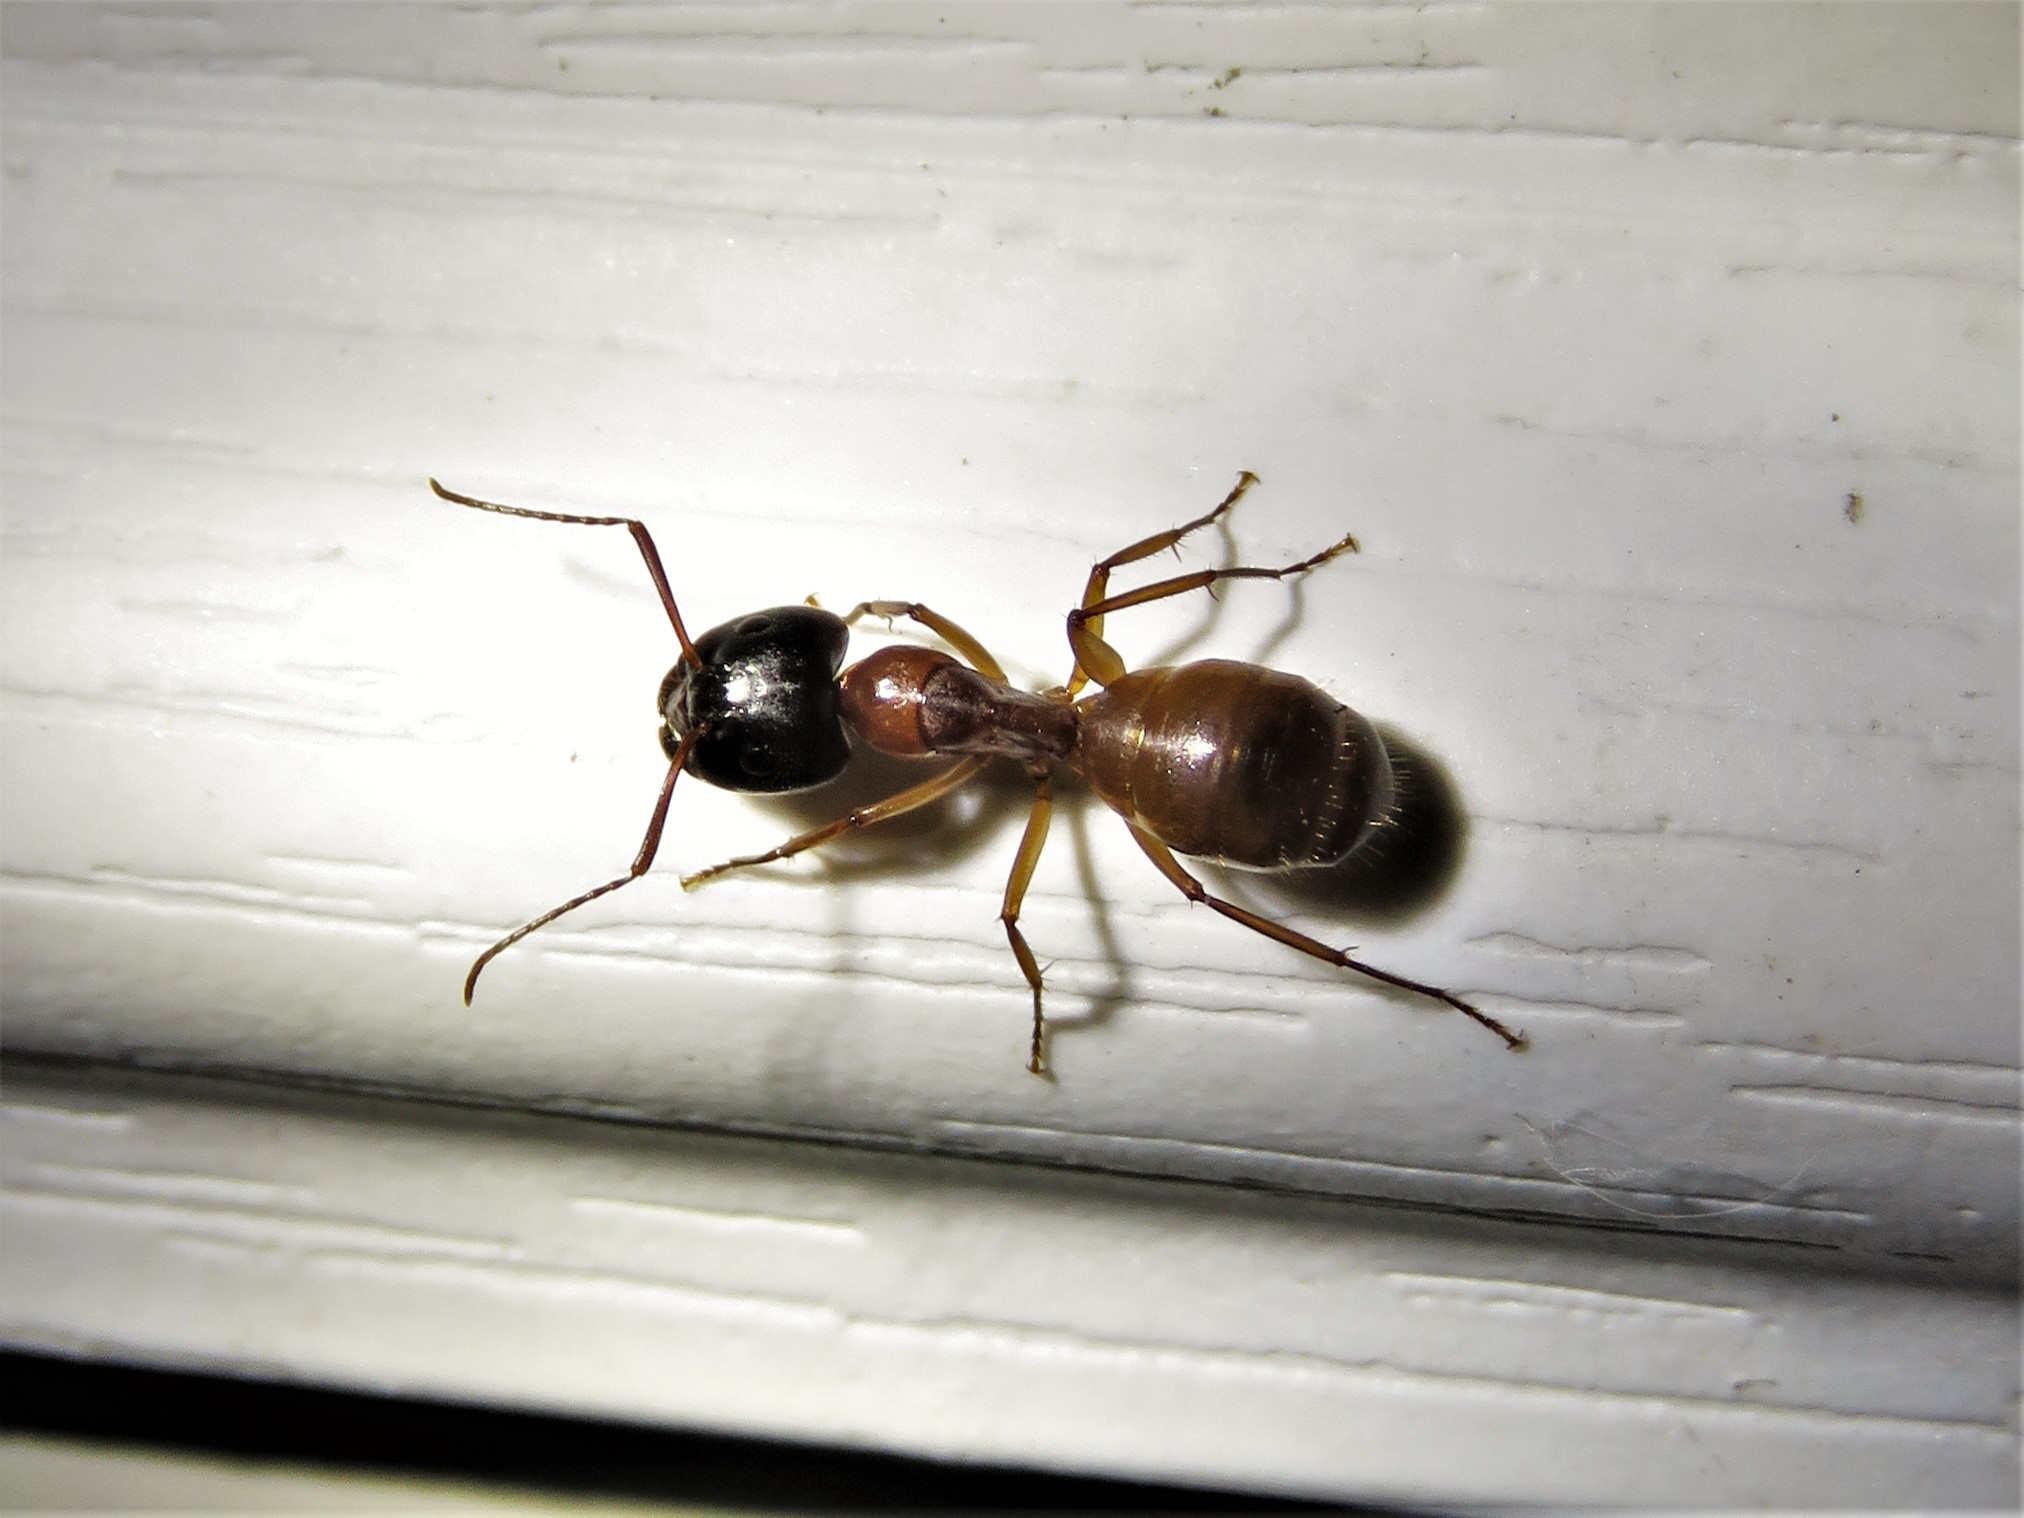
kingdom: Animalia
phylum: Arthropoda
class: Insecta
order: Hymenoptera
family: Formicidae
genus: Camponotus
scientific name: Camponotus americanus
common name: American carpenter ant
